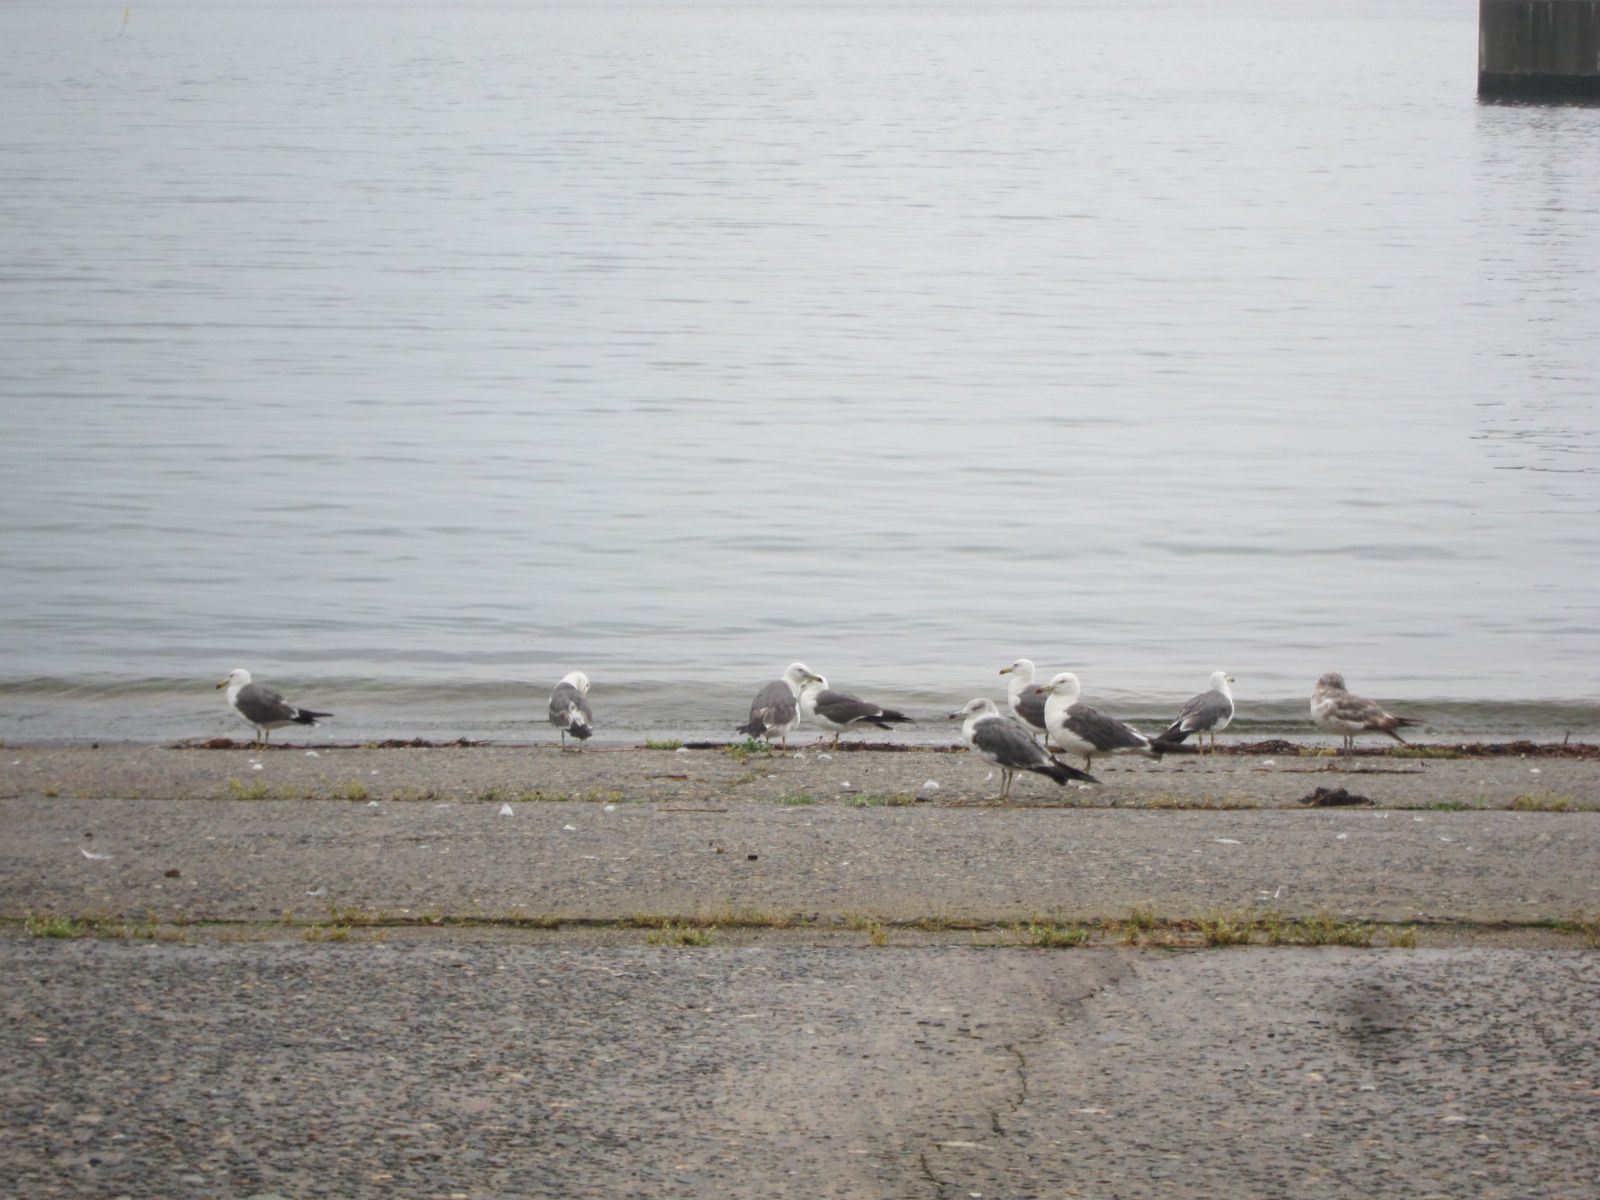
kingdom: Animalia
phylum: Chordata
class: Aves
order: Charadriiformes
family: Laridae
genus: Larus
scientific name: Larus crassirostris
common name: Black-tailed gull
